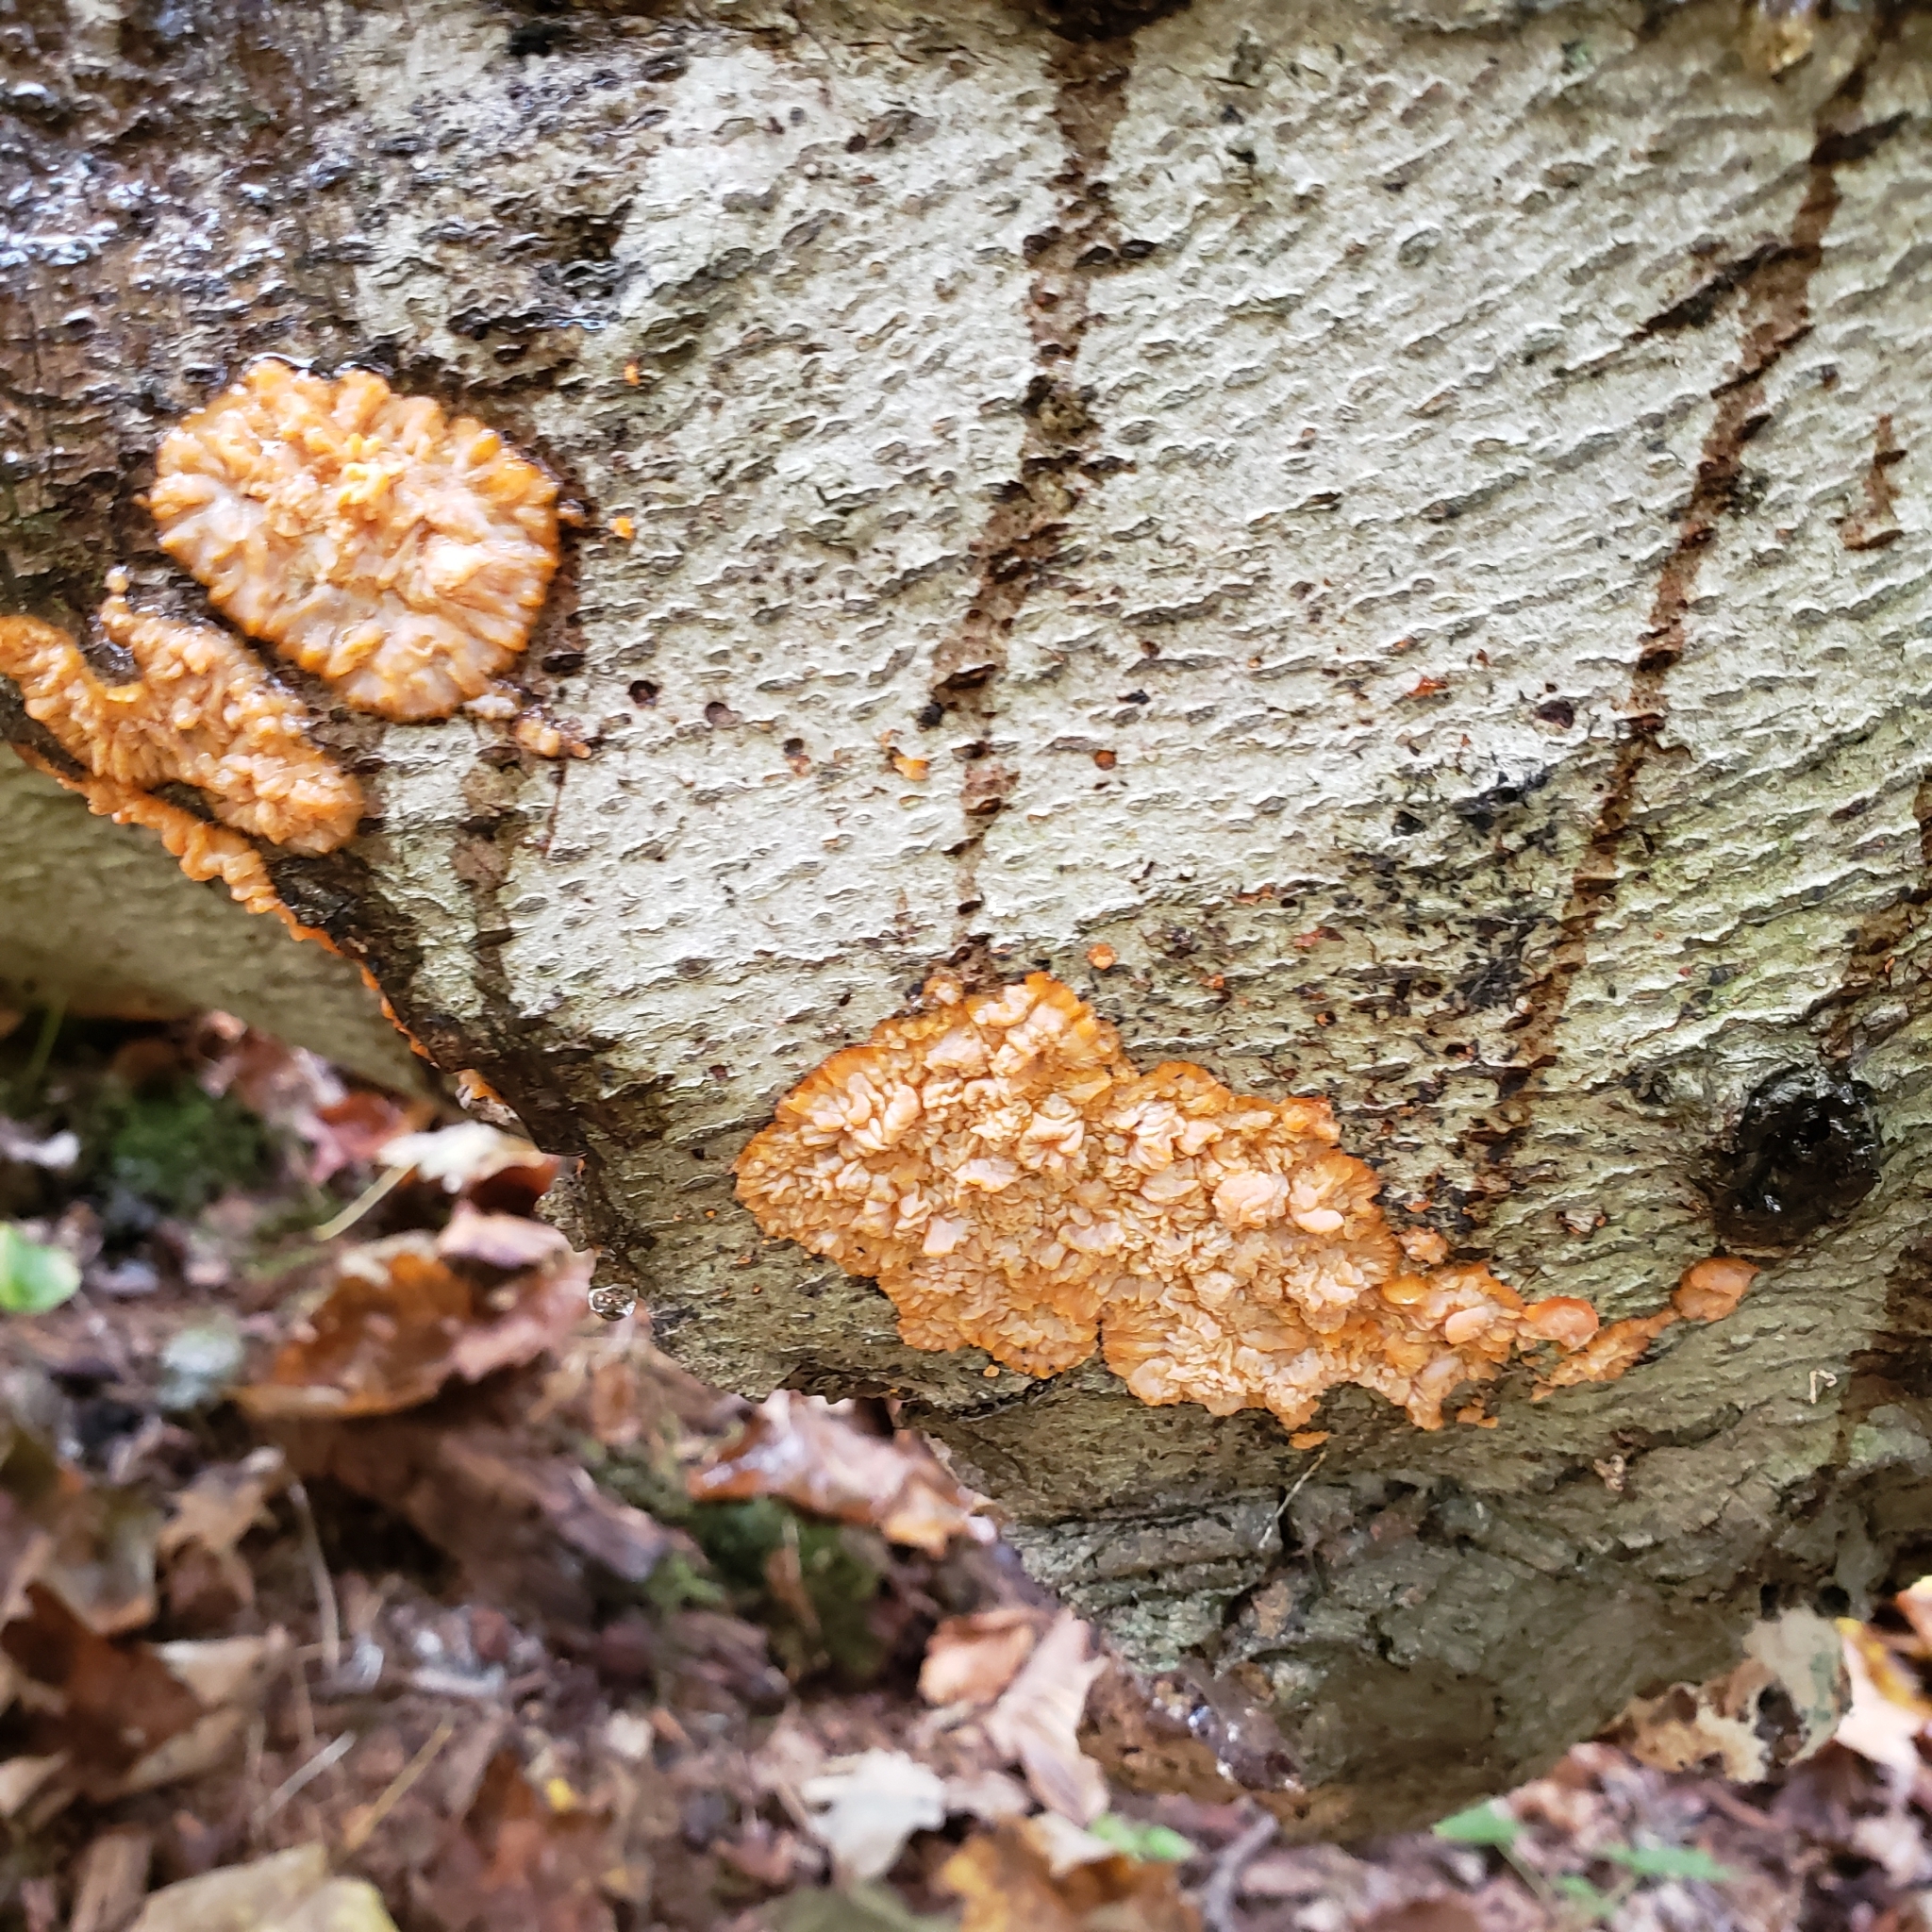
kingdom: Fungi
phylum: Basidiomycota
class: Agaricomycetes
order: Polyporales
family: Meruliaceae
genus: Phlebia
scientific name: Phlebia radiata
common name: Wrinkled crust
